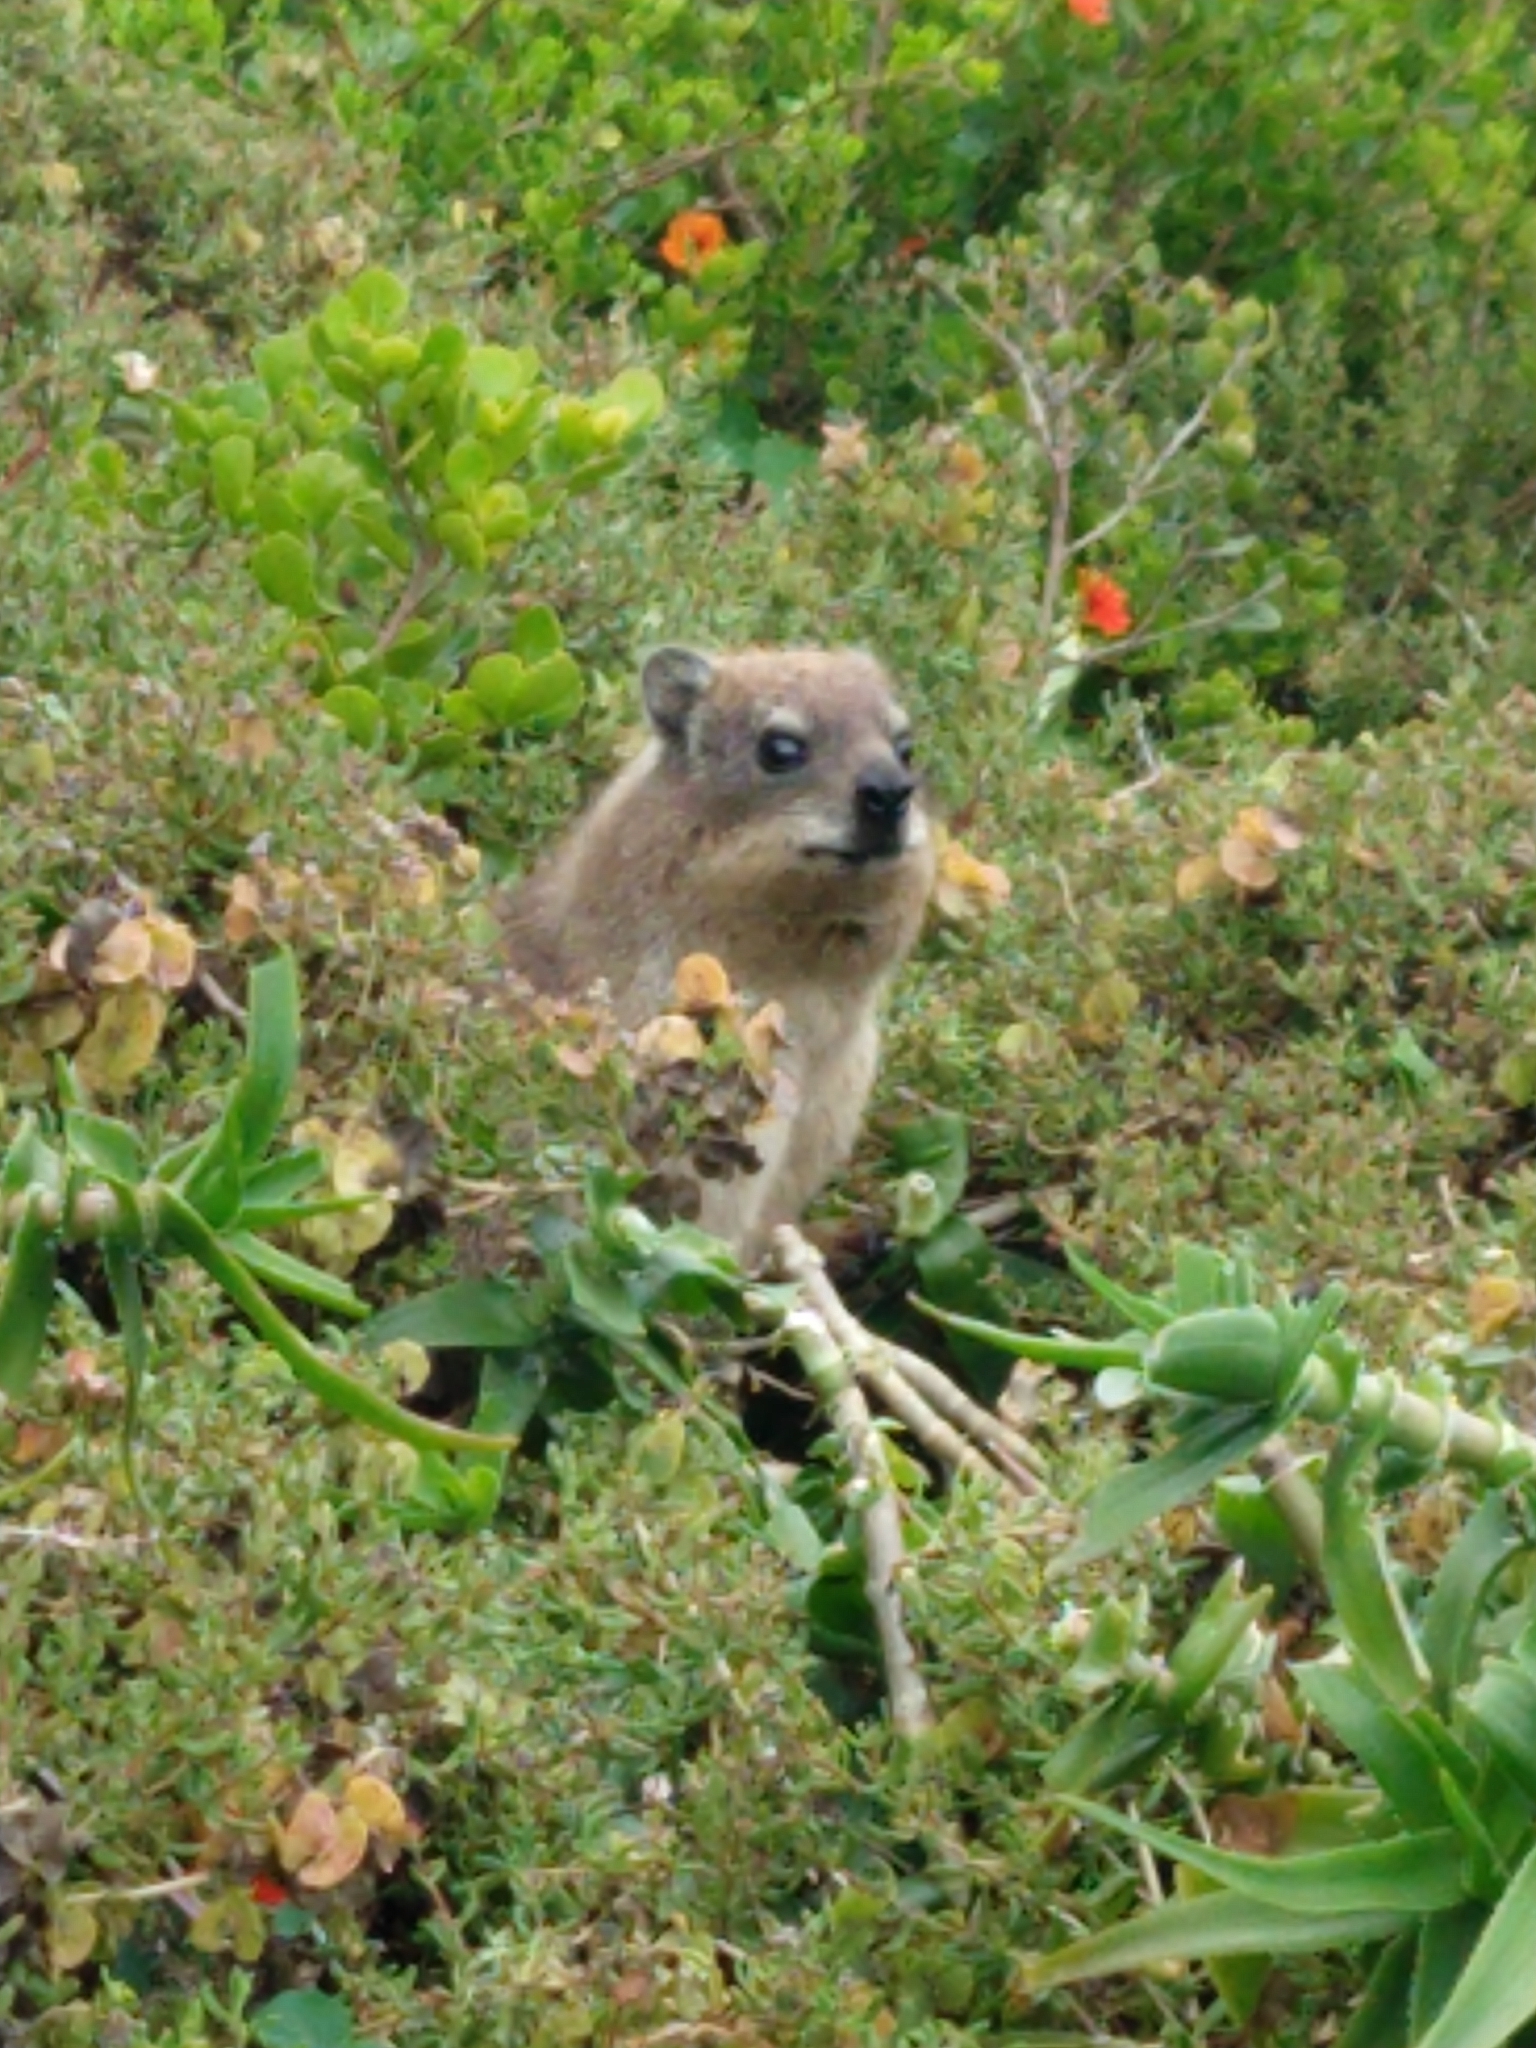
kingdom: Animalia
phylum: Chordata
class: Mammalia
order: Hyracoidea
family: Procaviidae
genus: Procavia
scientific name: Procavia capensis
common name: Rock hyrax
